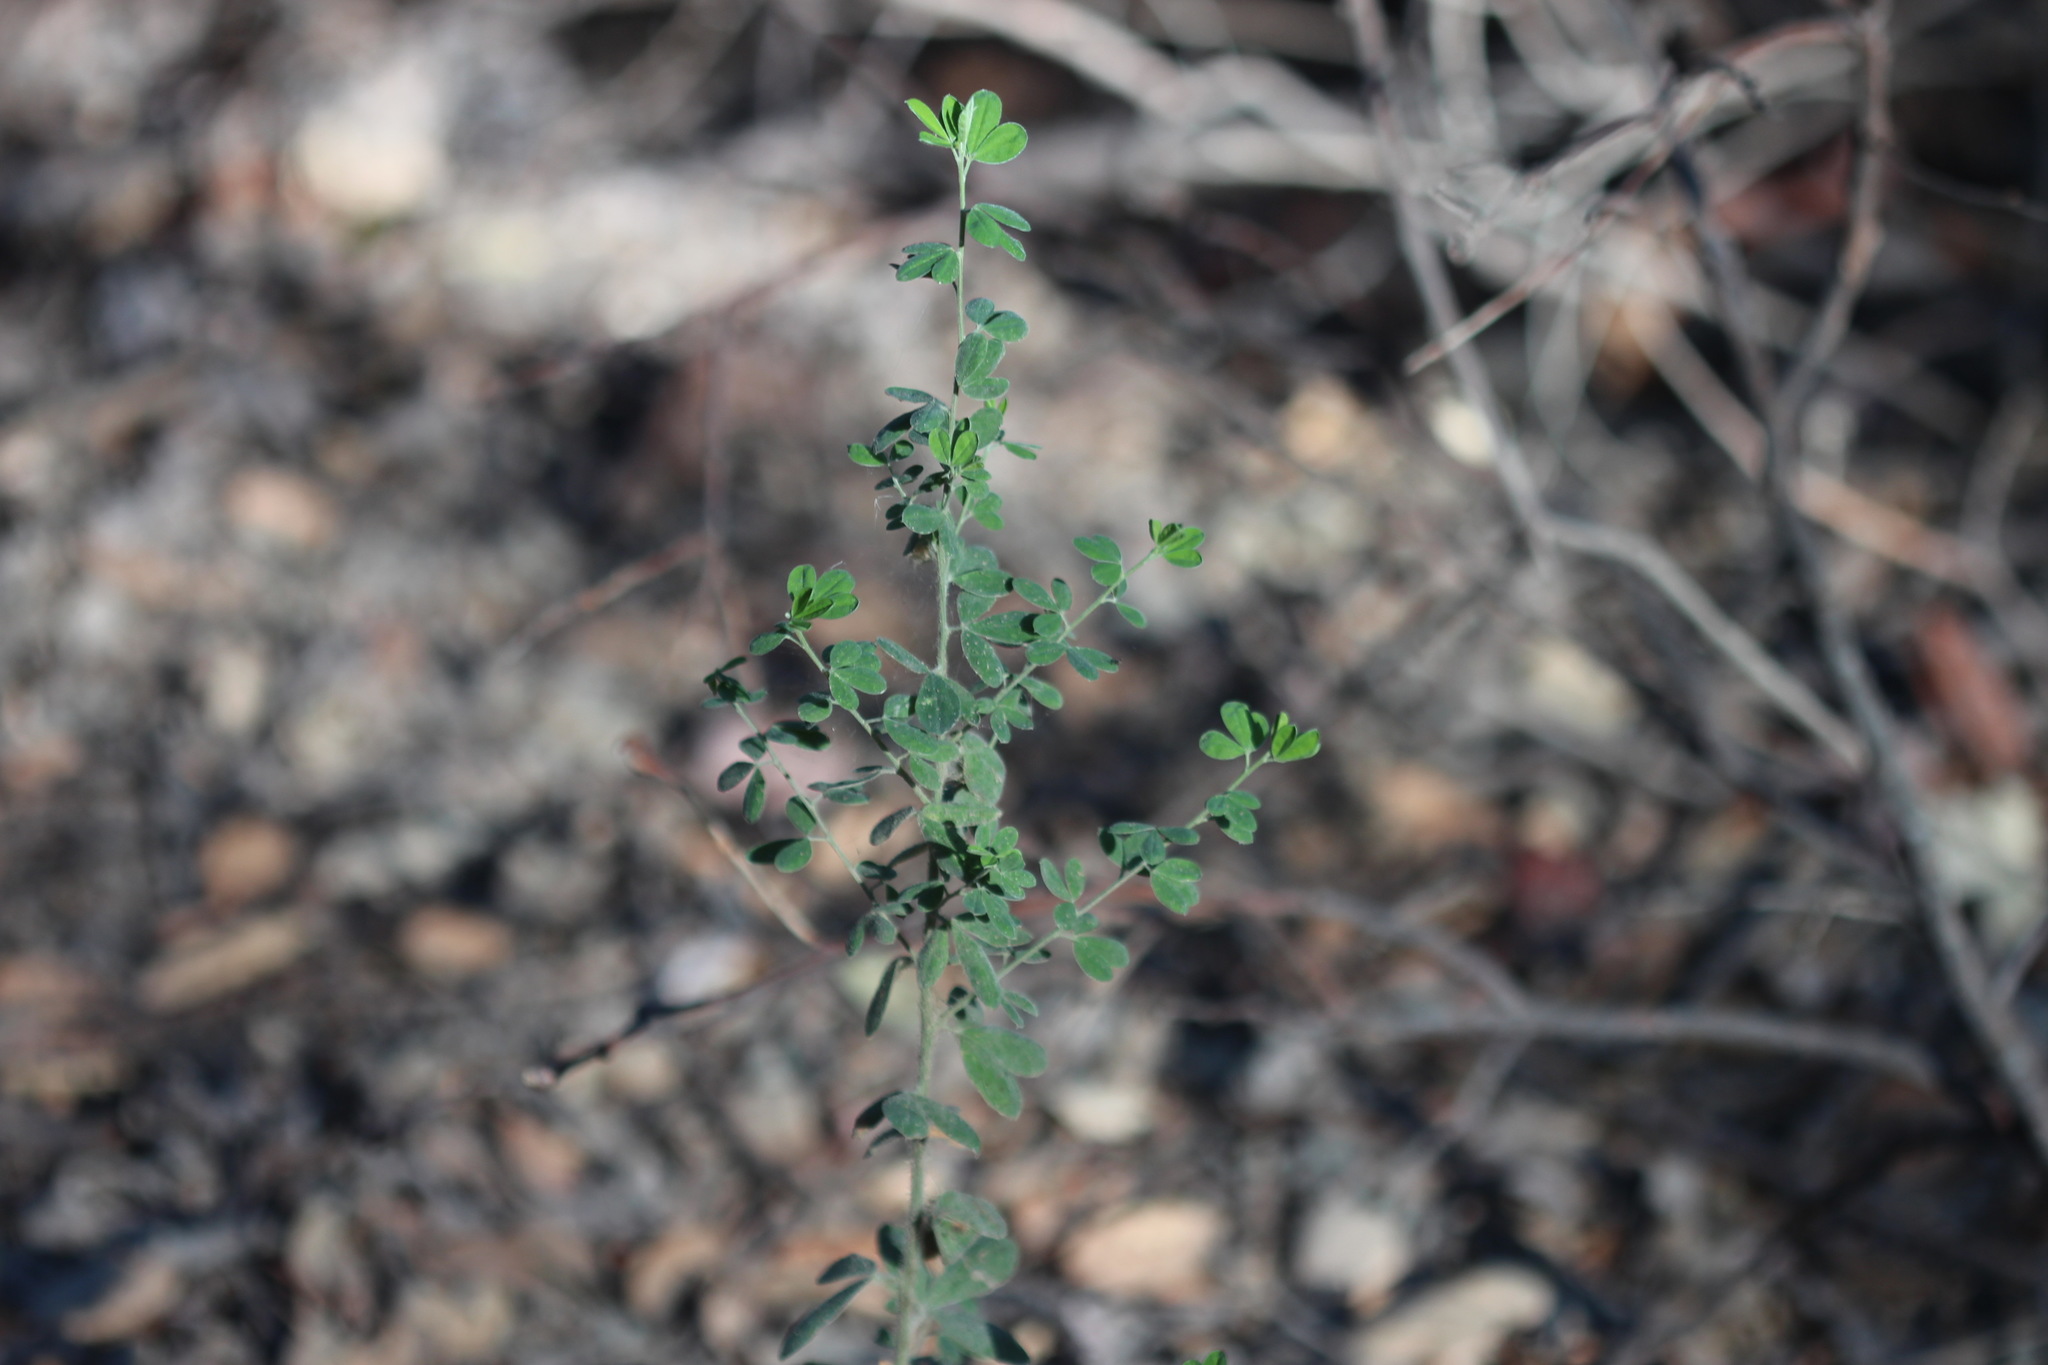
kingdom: Plantae
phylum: Tracheophyta
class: Magnoliopsida
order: Fabales
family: Fabaceae
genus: Genista
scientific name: Genista monspessulana
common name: Montpellier broom
